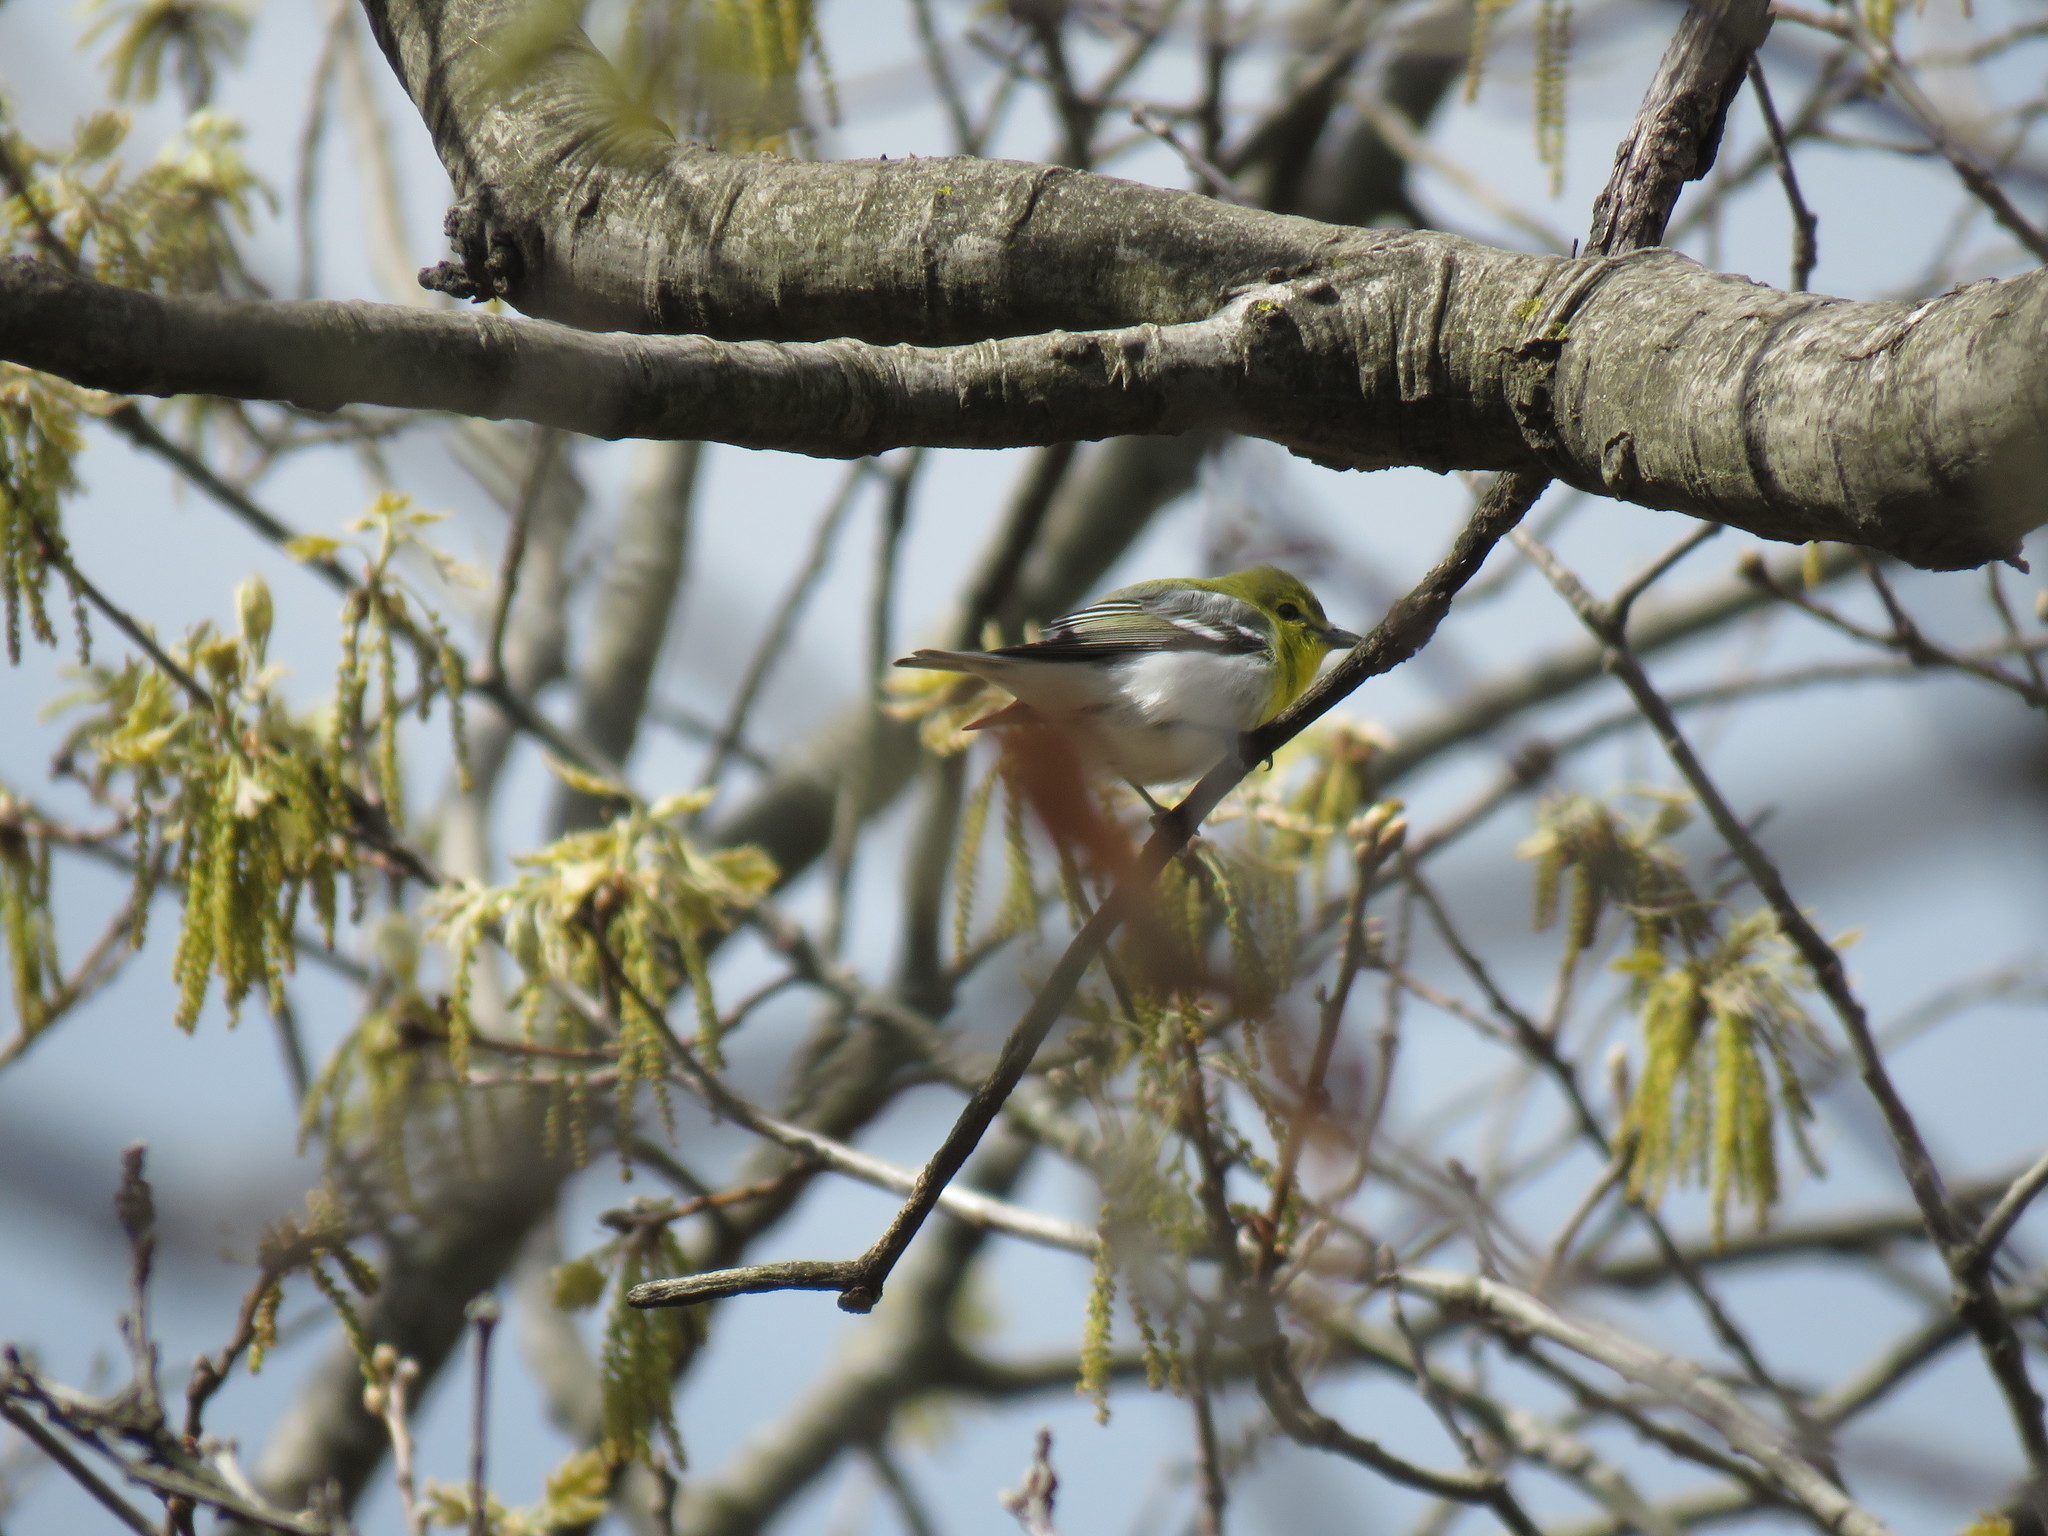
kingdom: Animalia
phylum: Chordata
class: Aves
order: Passeriformes
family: Vireonidae
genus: Vireo
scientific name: Vireo flavifrons
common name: Yellow-throated vireo
